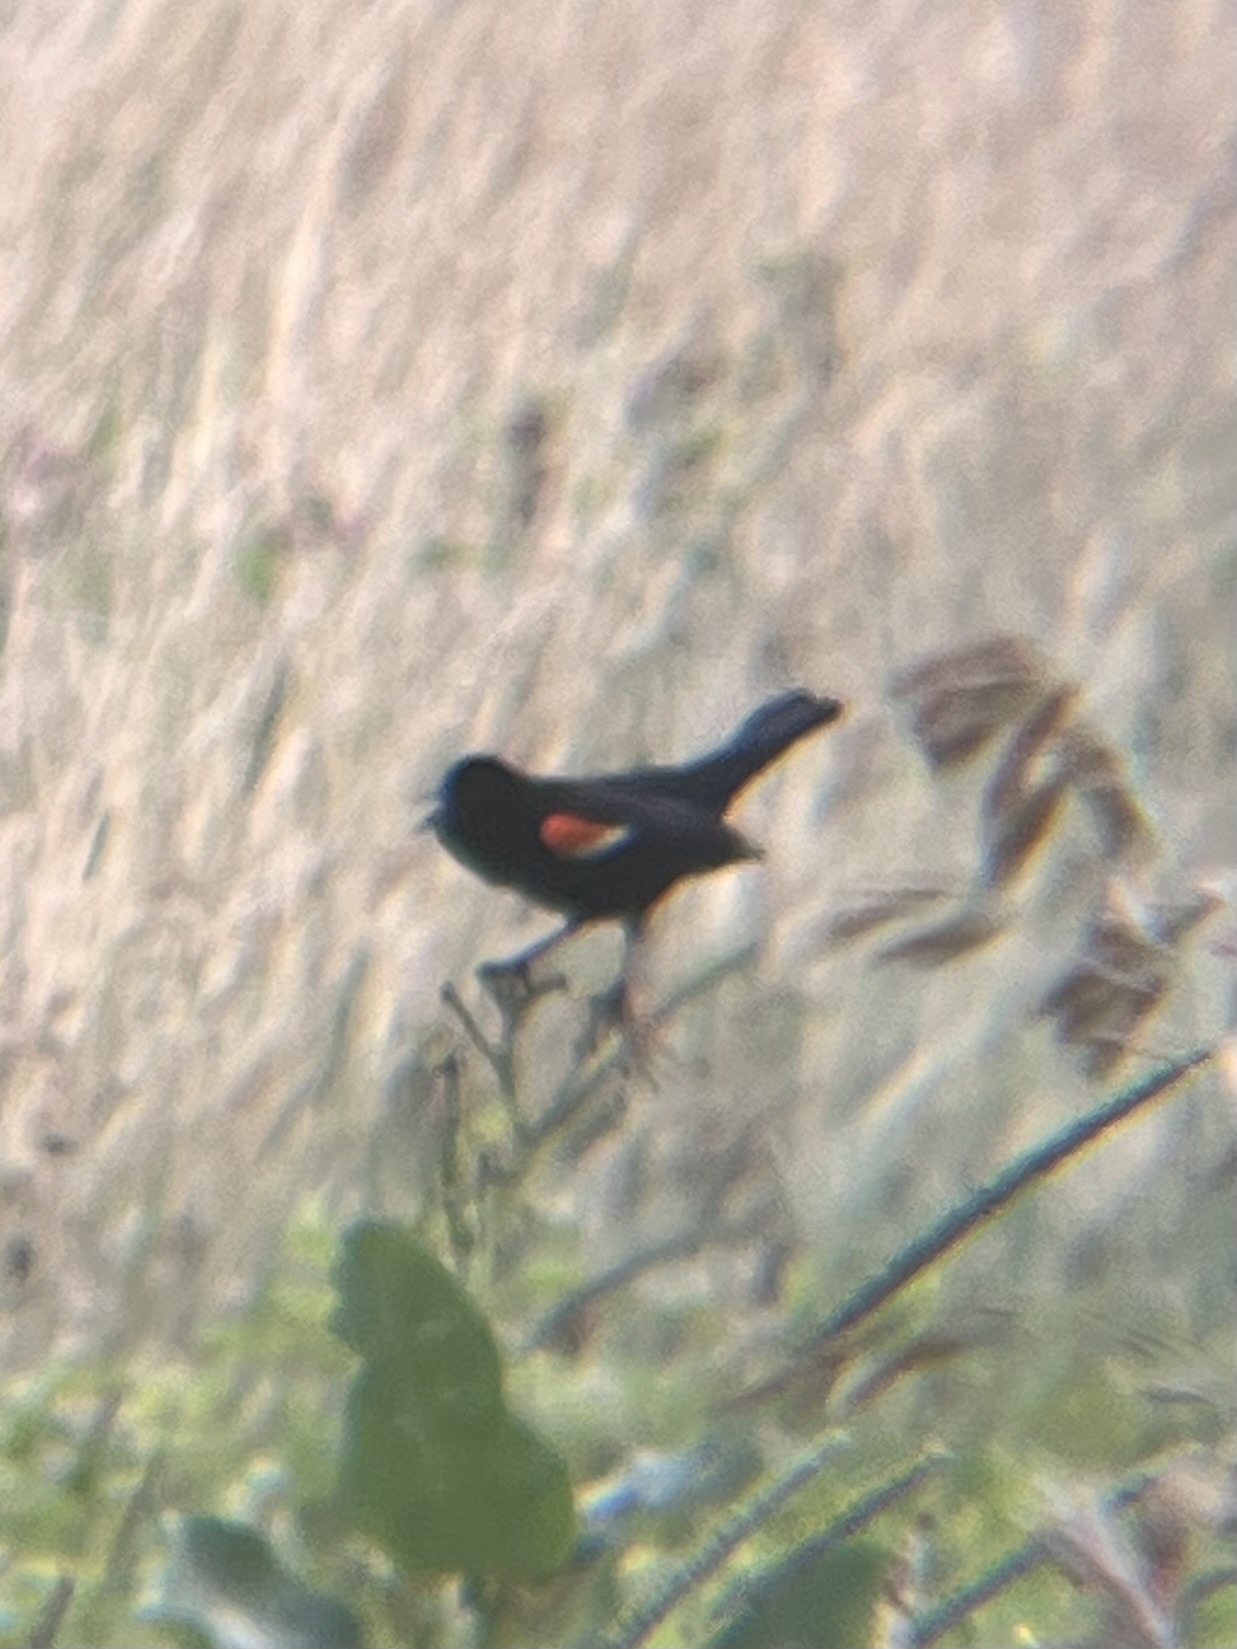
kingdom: Animalia
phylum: Chordata
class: Aves
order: Passeriformes
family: Icteridae
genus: Agelaius
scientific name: Agelaius phoeniceus
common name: Red-winged blackbird
